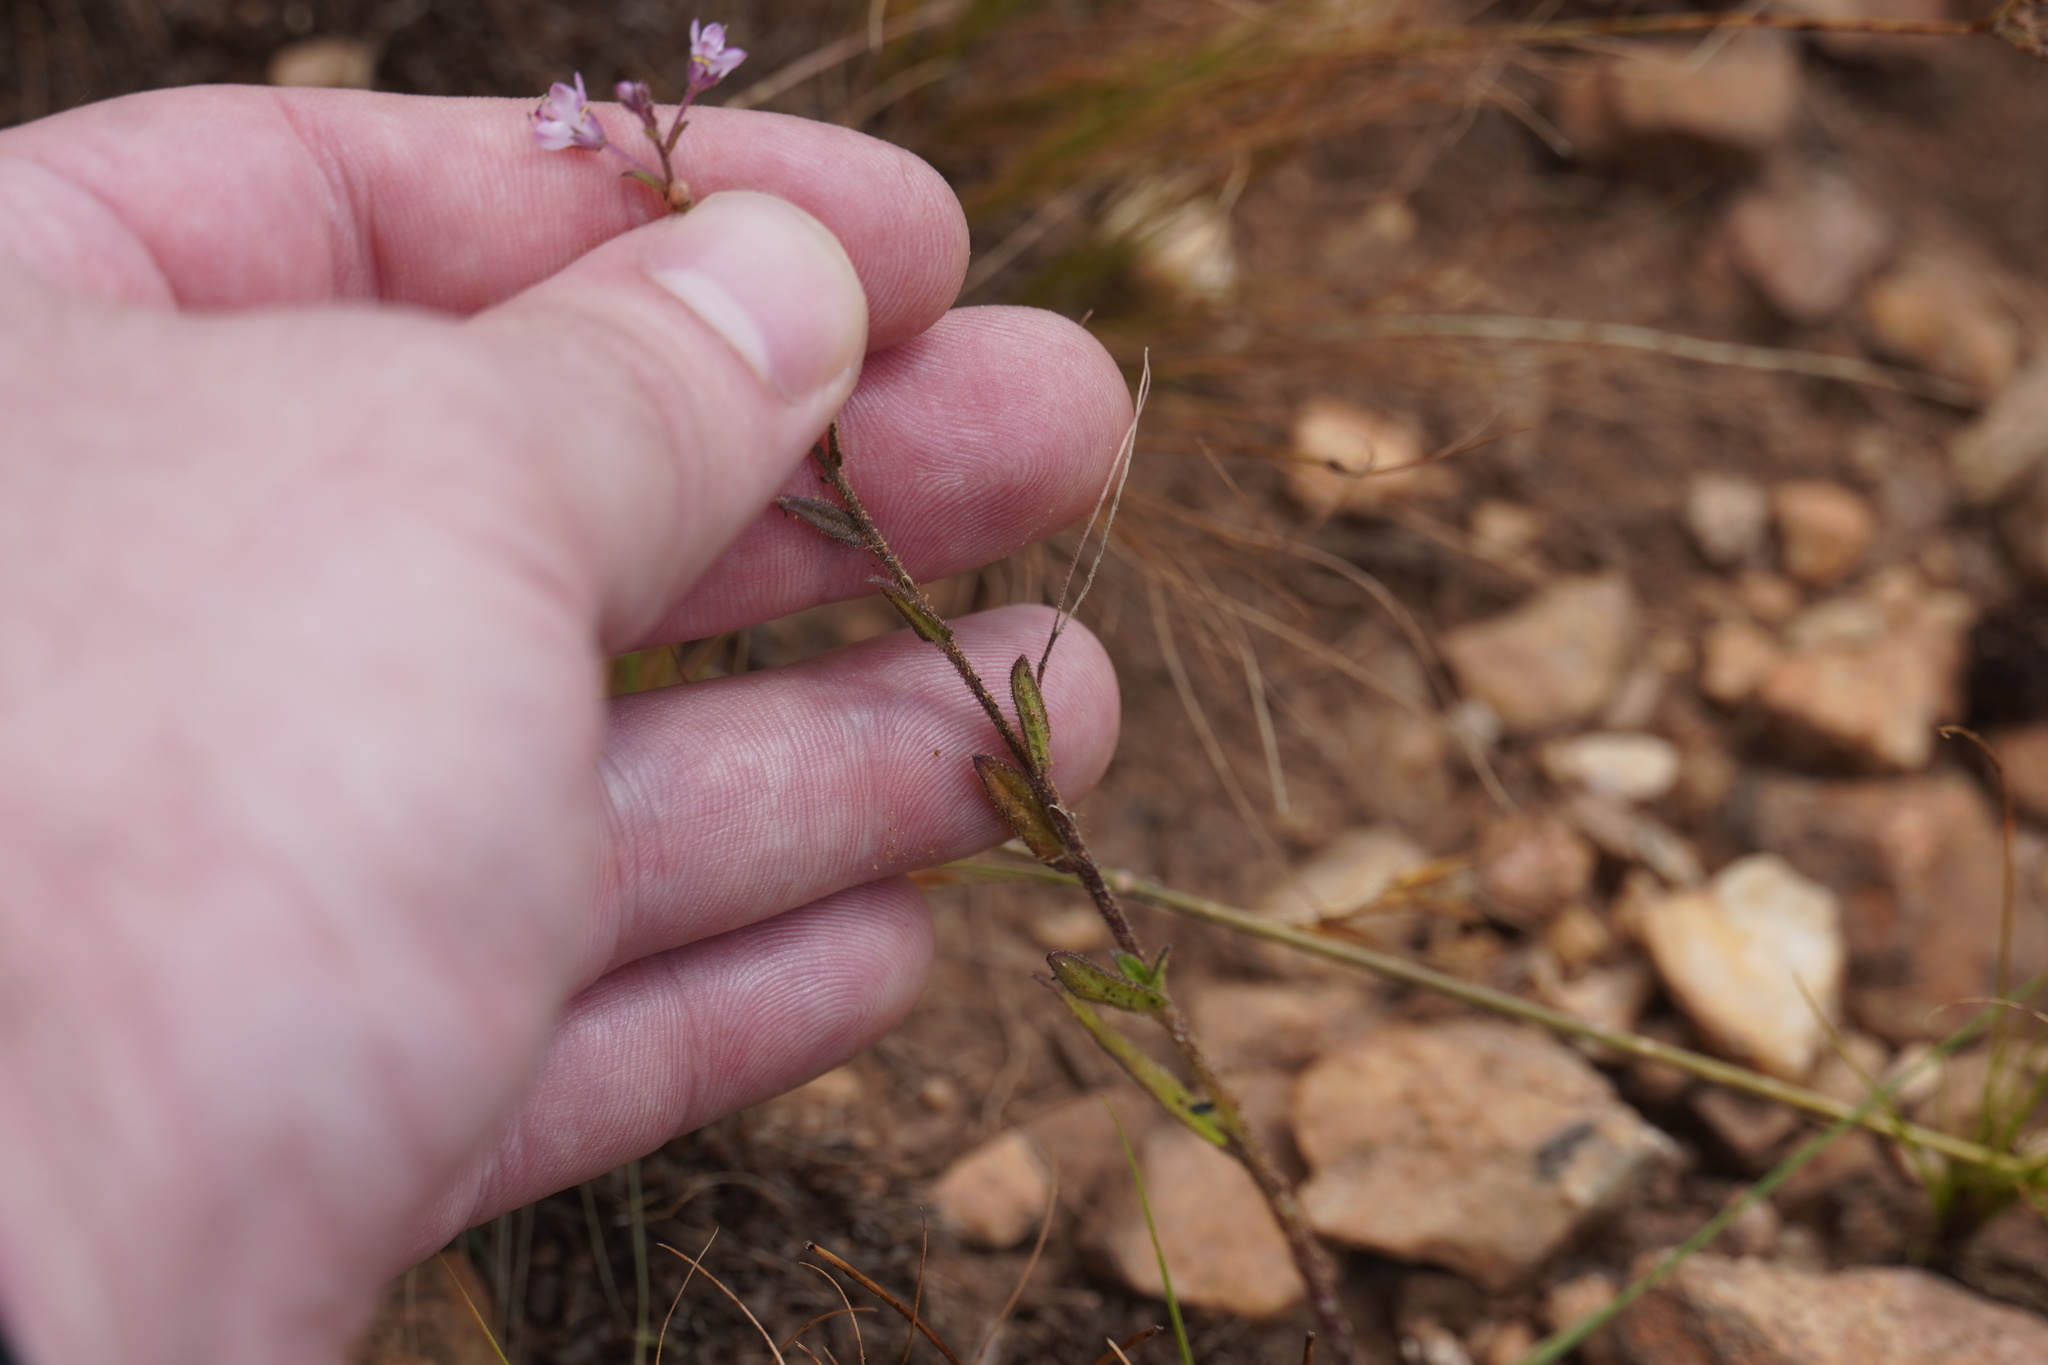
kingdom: Plantae
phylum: Tracheophyta
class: Magnoliopsida
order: Brassicales
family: Cleomaceae
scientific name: Cleomaceae
